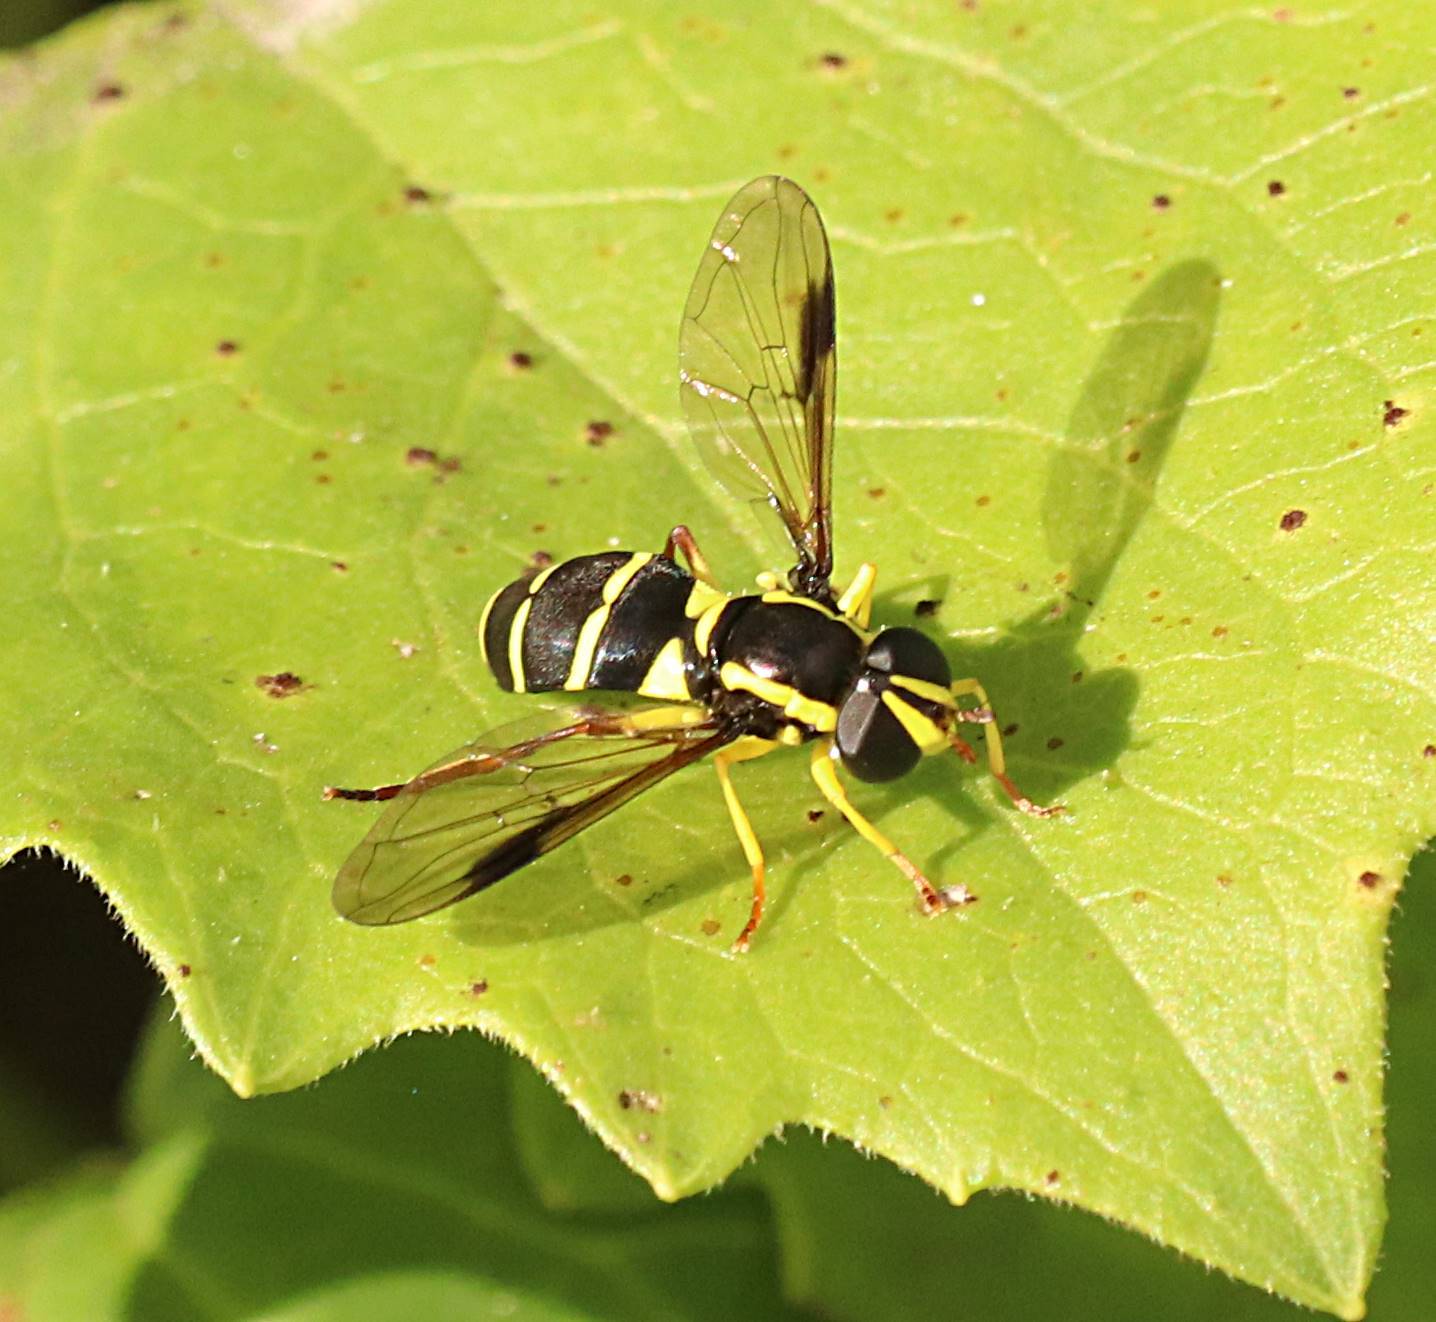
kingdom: Animalia
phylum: Arthropoda
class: Insecta
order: Diptera
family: Syrphidae
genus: Philhelius
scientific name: Philhelius pedissequum
